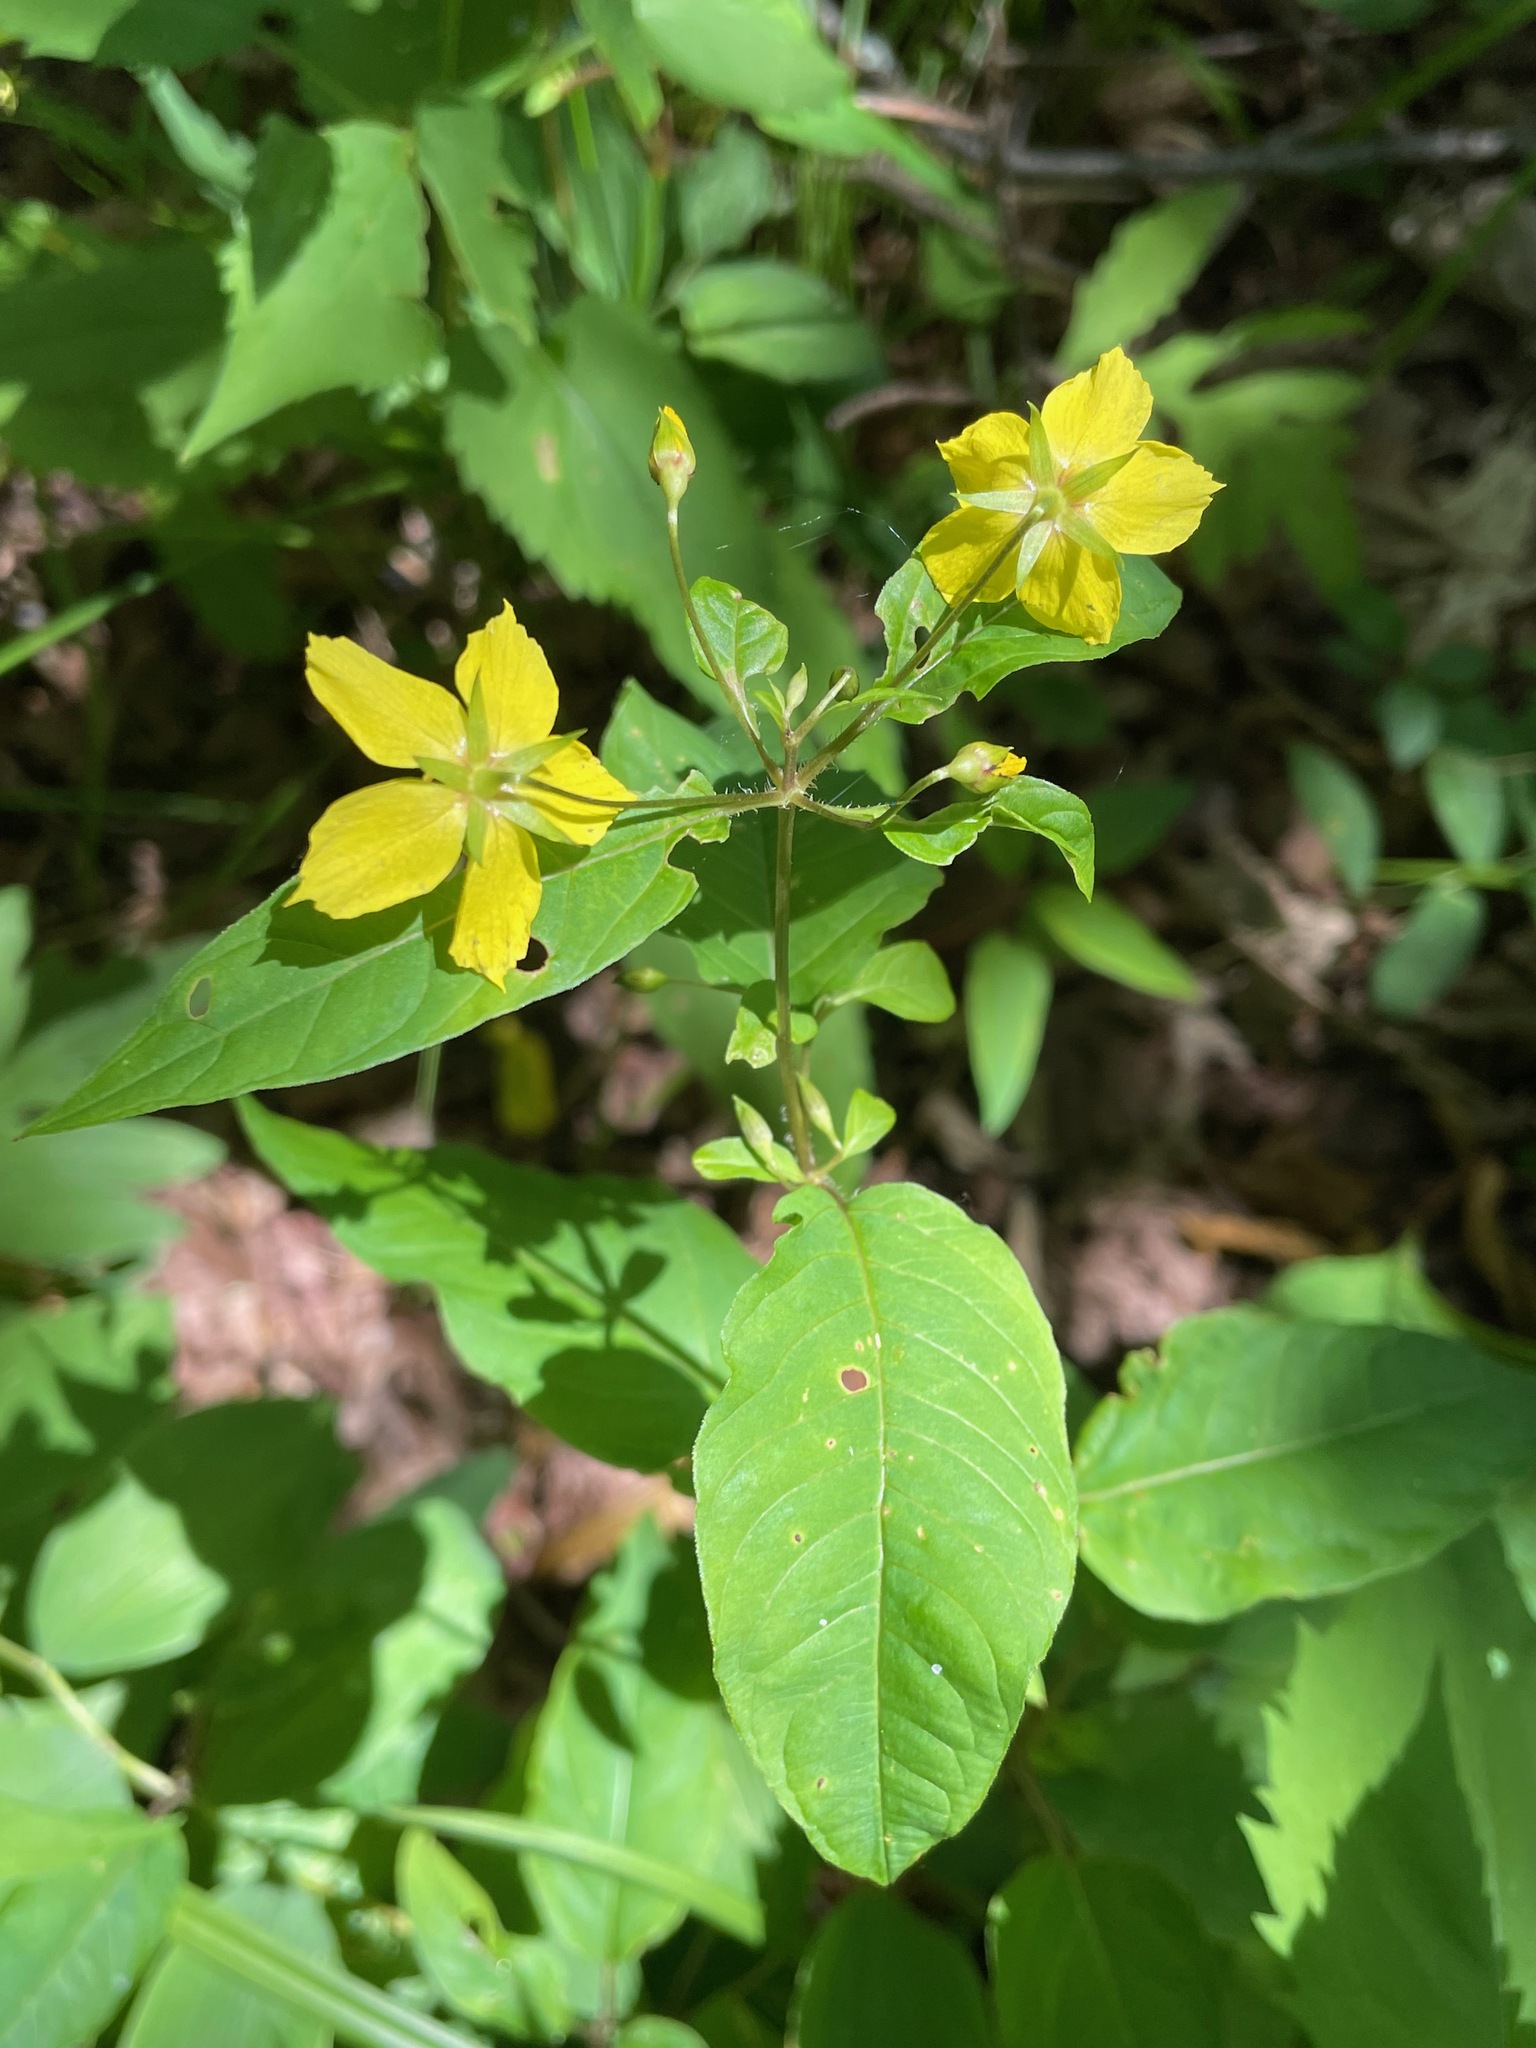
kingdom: Plantae
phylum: Tracheophyta
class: Magnoliopsida
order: Ericales
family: Primulaceae
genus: Lysimachia
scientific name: Lysimachia ciliata
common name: Fringed loosestrife
